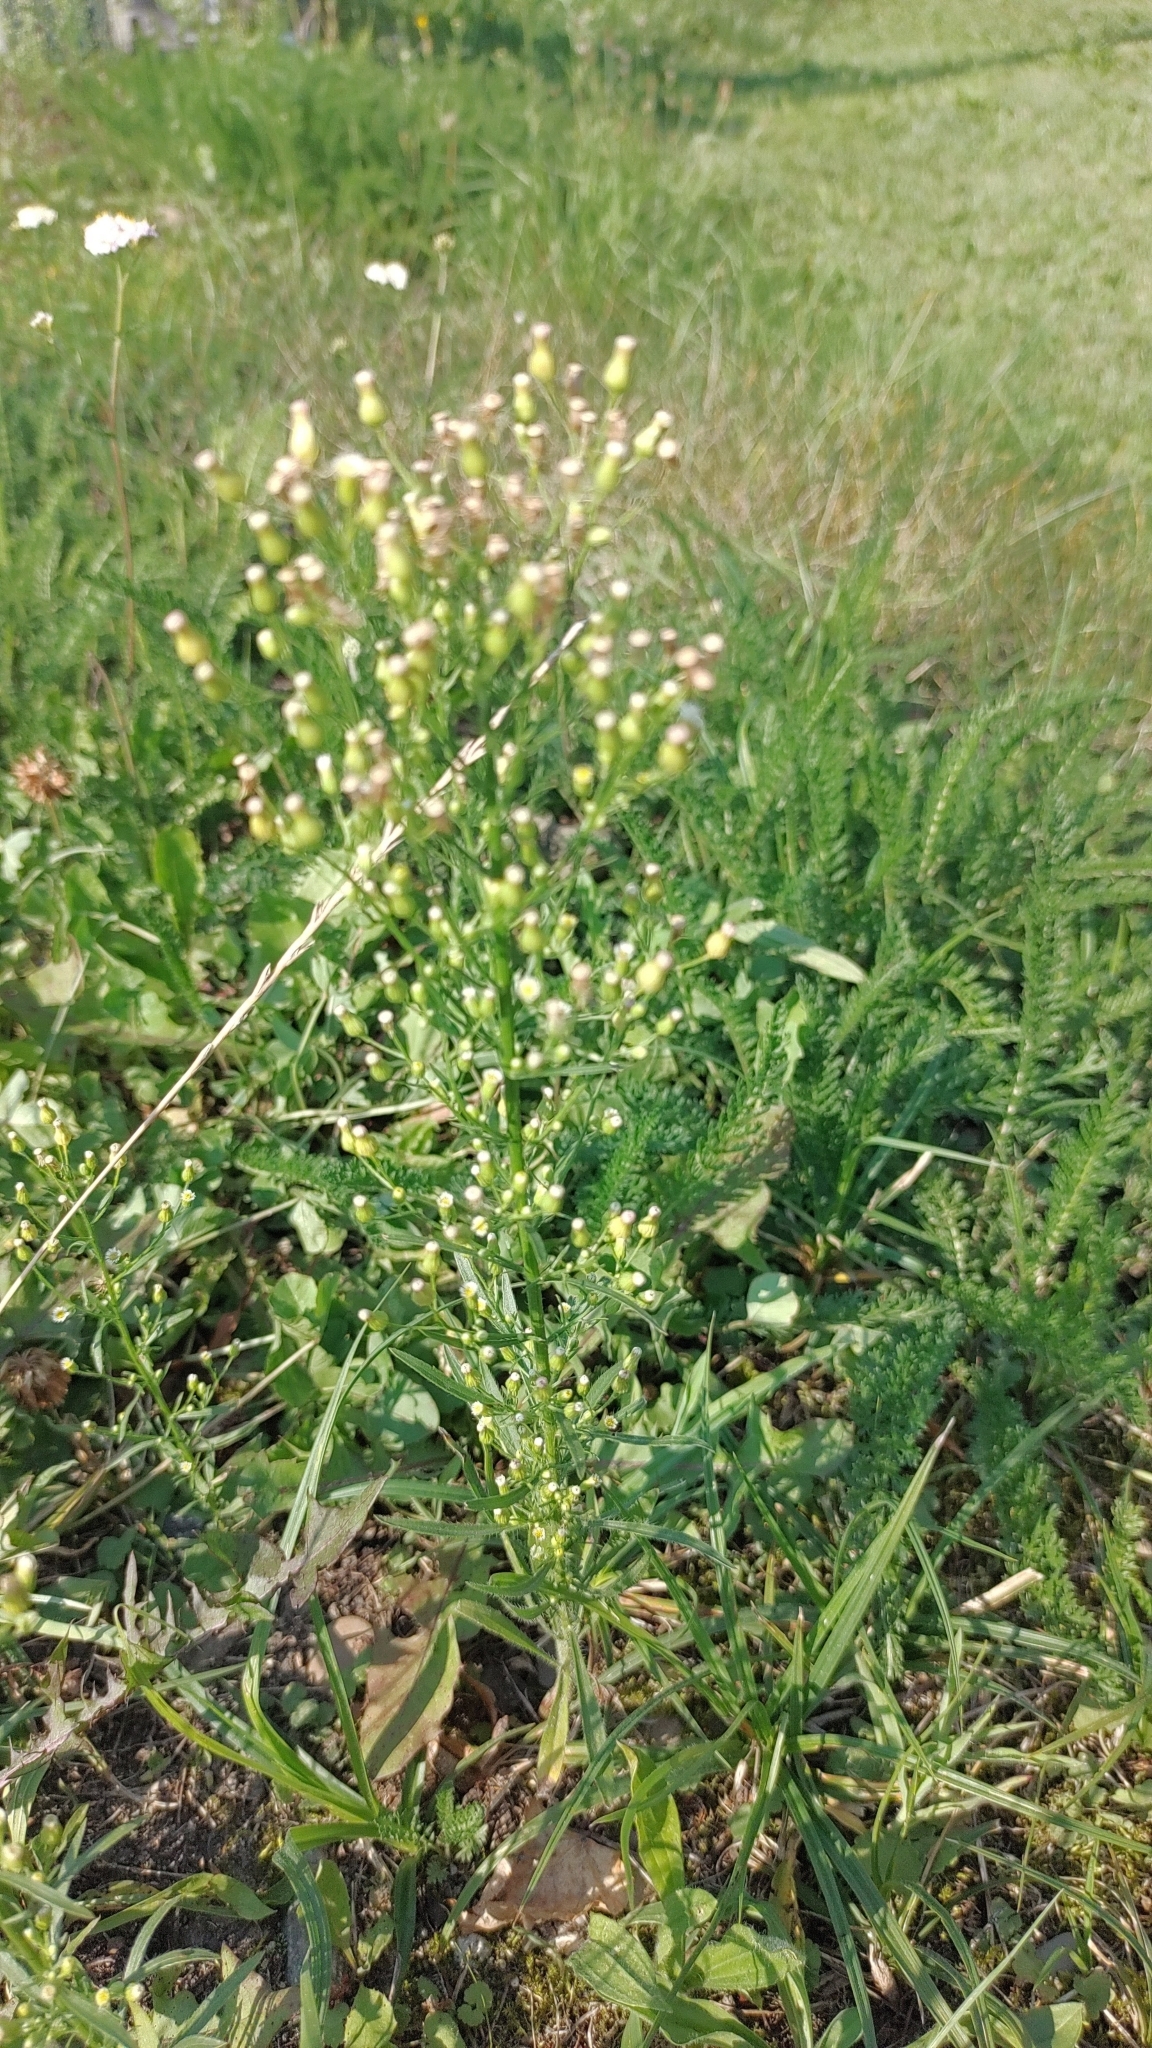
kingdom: Plantae
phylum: Tracheophyta
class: Magnoliopsida
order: Asterales
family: Asteraceae
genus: Erigeron
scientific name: Erigeron canadensis
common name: Canadian fleabane
